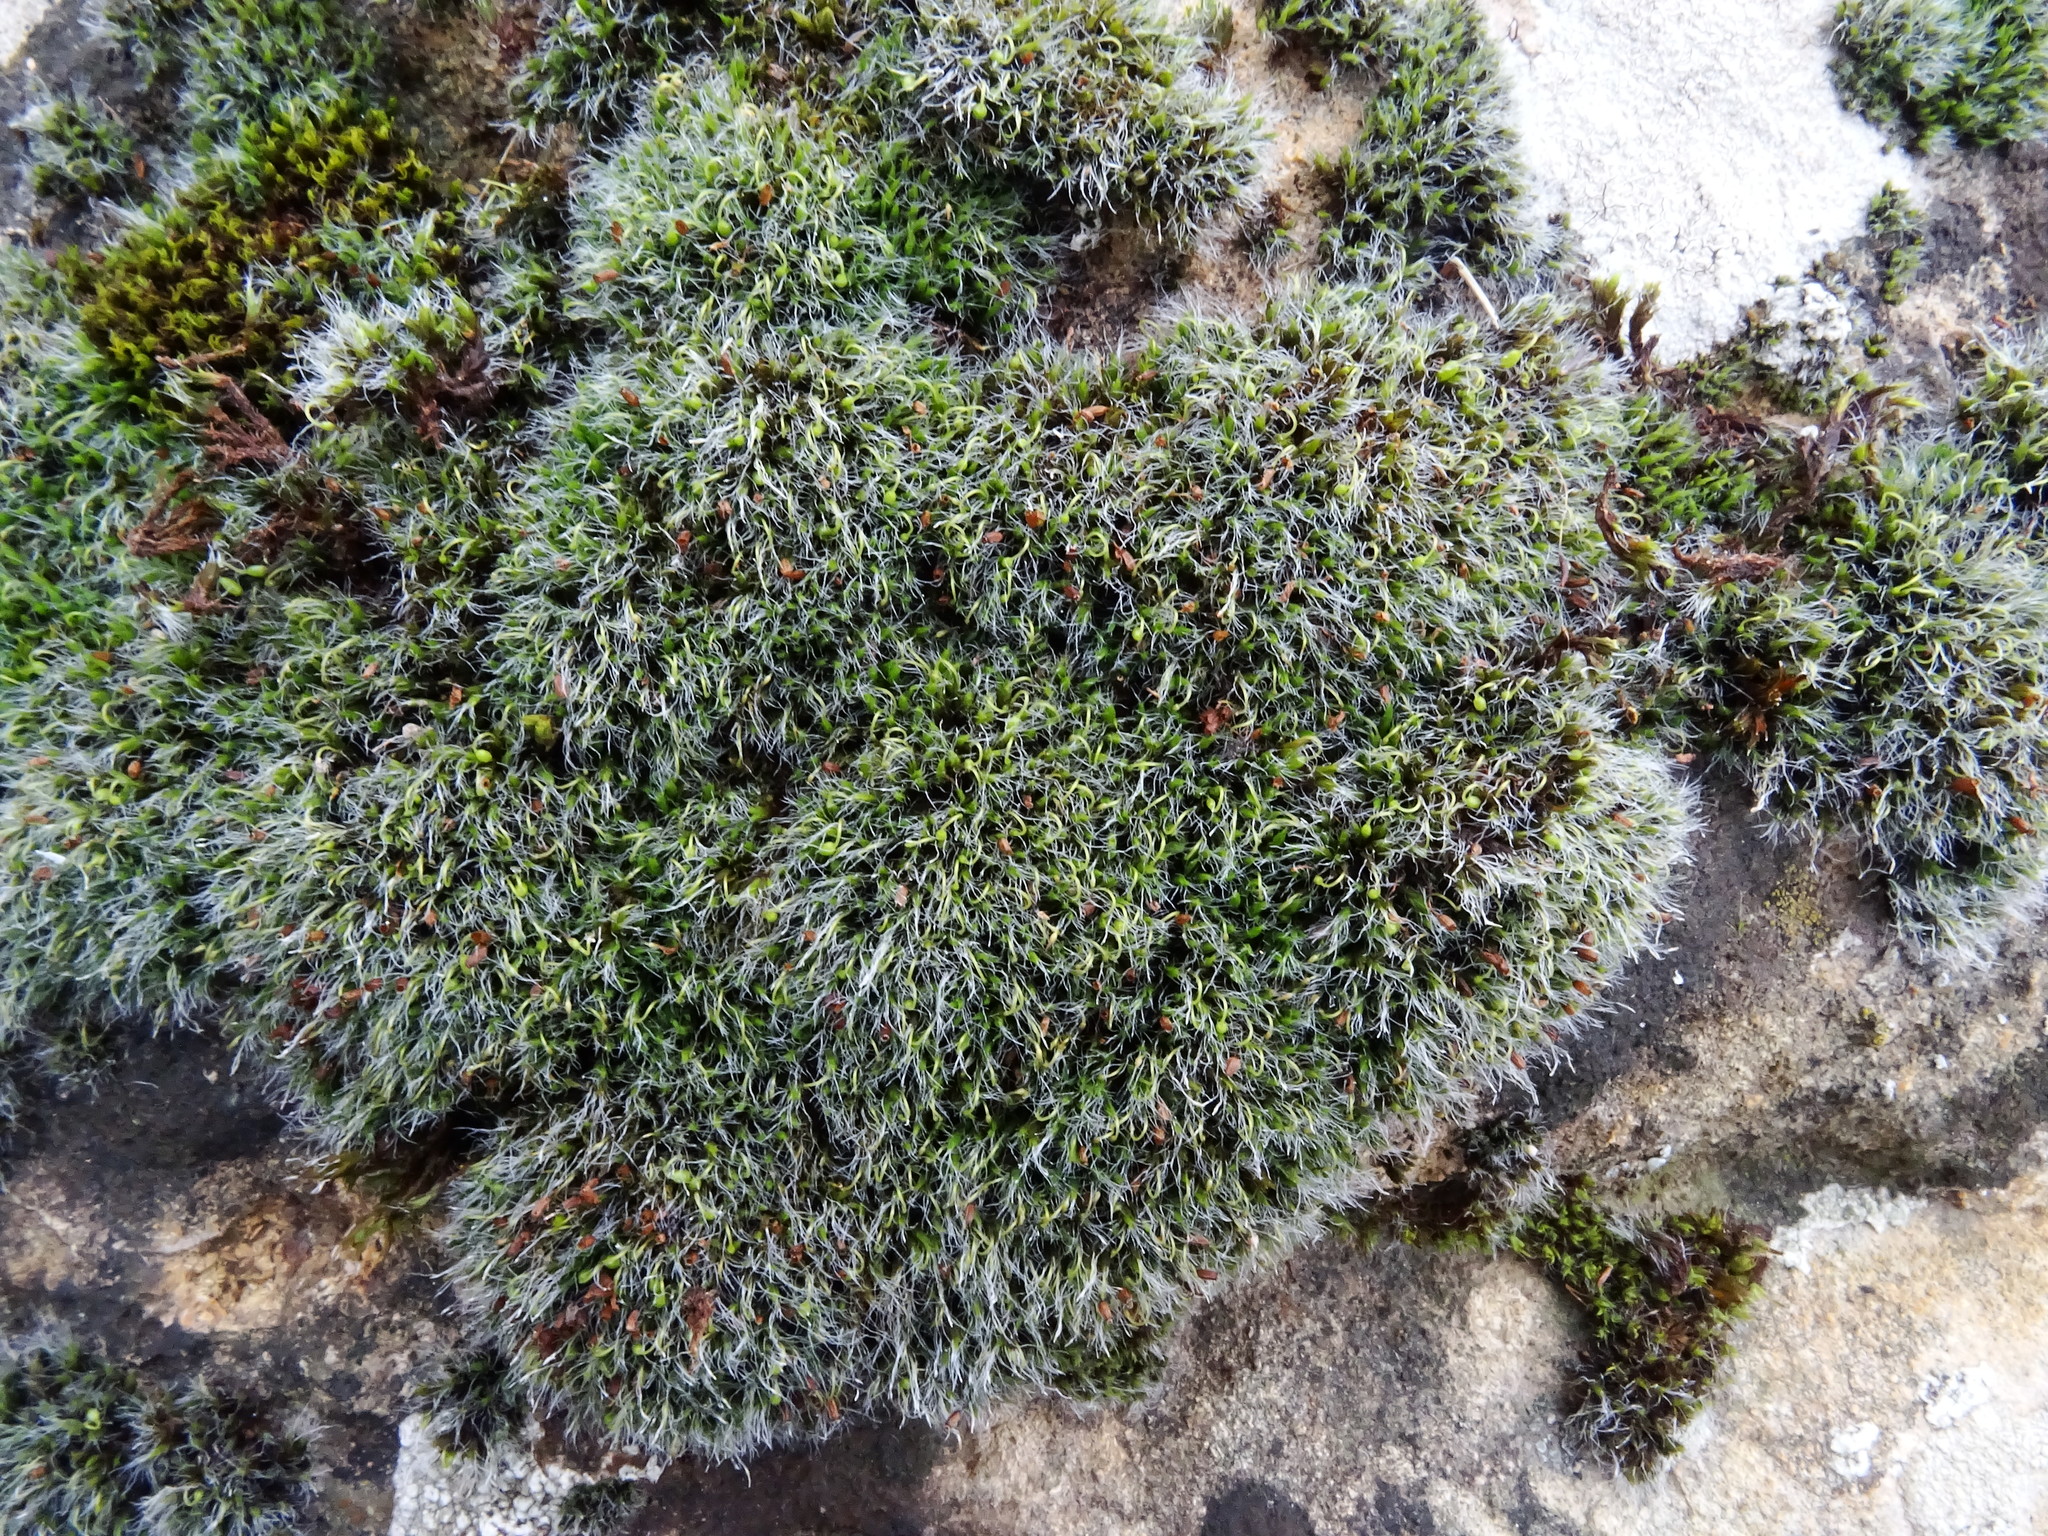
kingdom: Plantae
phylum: Bryophyta
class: Bryopsida
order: Grimmiales
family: Grimmiaceae
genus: Grimmia
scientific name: Grimmia pulvinata
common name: Grey-cushioned grimmia
